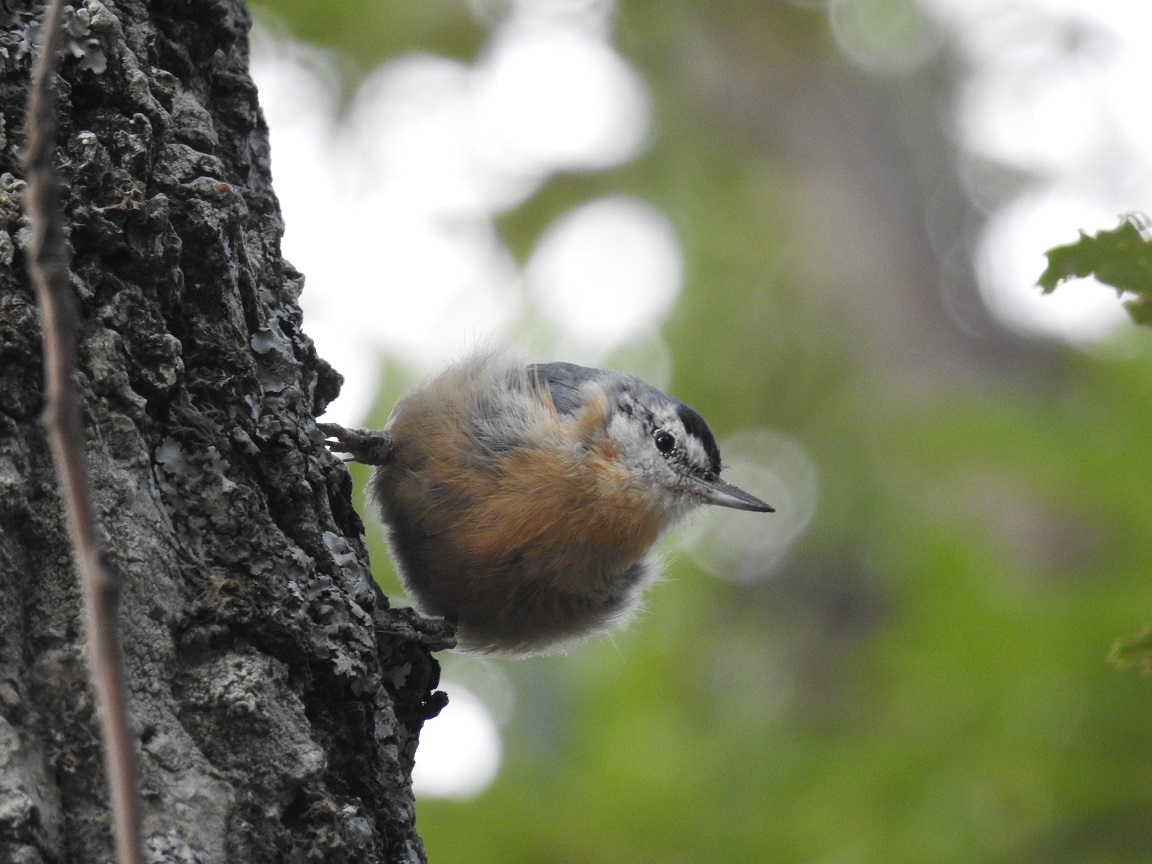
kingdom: Animalia
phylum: Chordata
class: Aves
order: Passeriformes
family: Sittidae
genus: Sitta
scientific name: Sitta ledanti
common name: Algerian nuthatch
